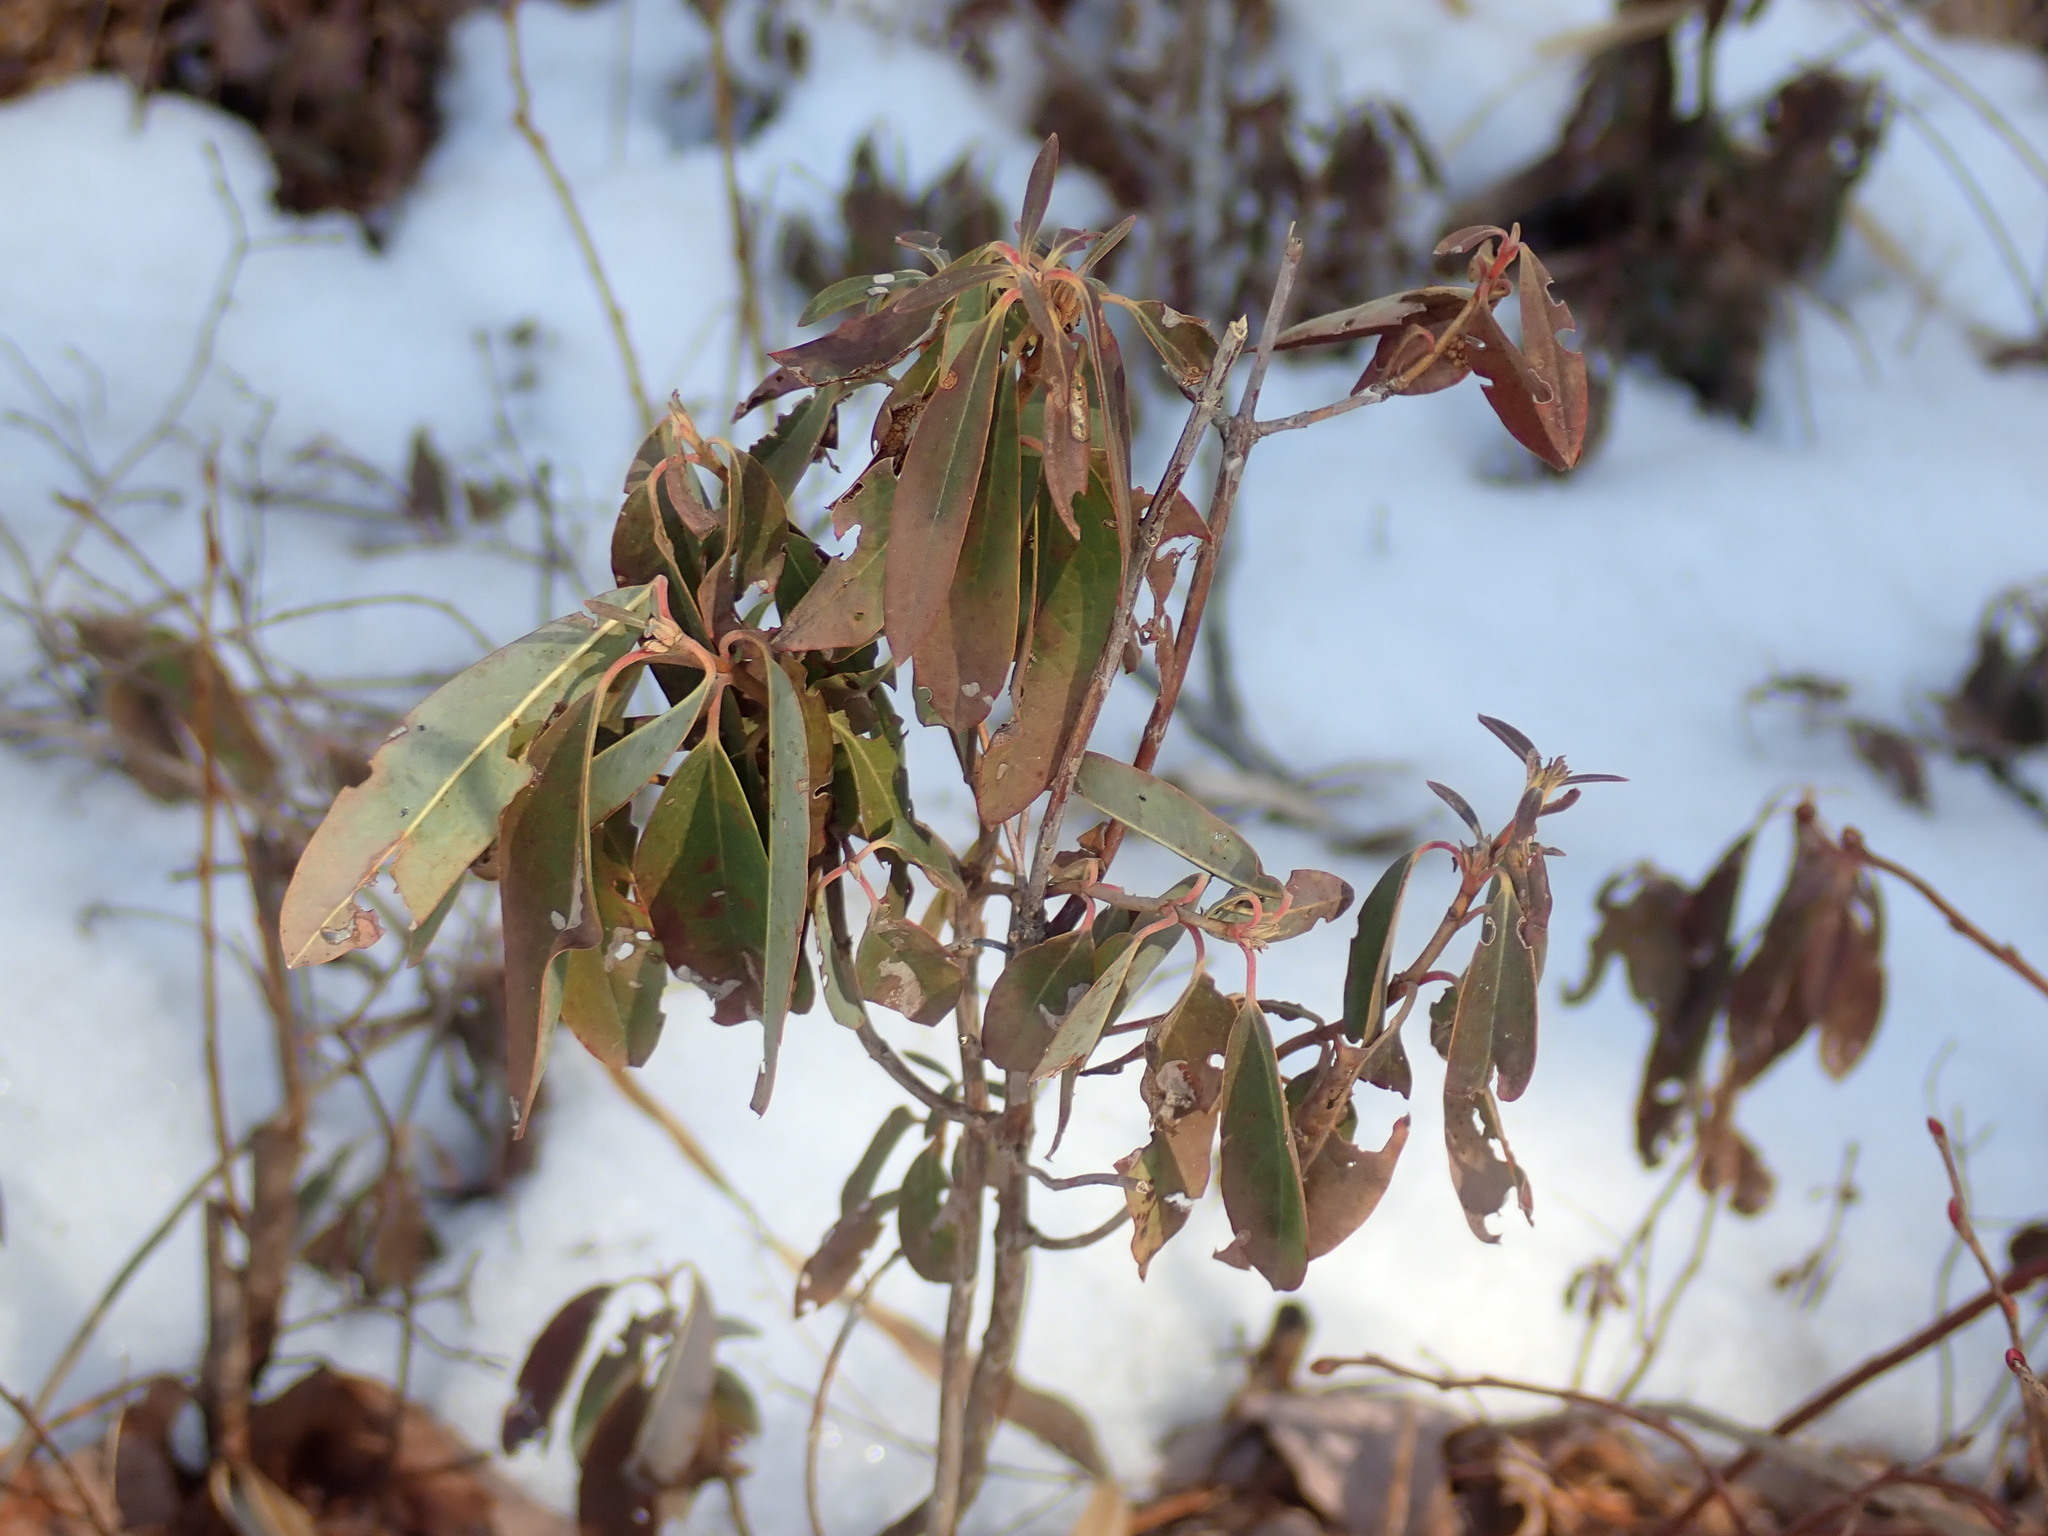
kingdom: Plantae
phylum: Tracheophyta
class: Magnoliopsida
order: Ericales
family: Ericaceae
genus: Kalmia
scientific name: Kalmia angustifolia
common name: Sheep-laurel
